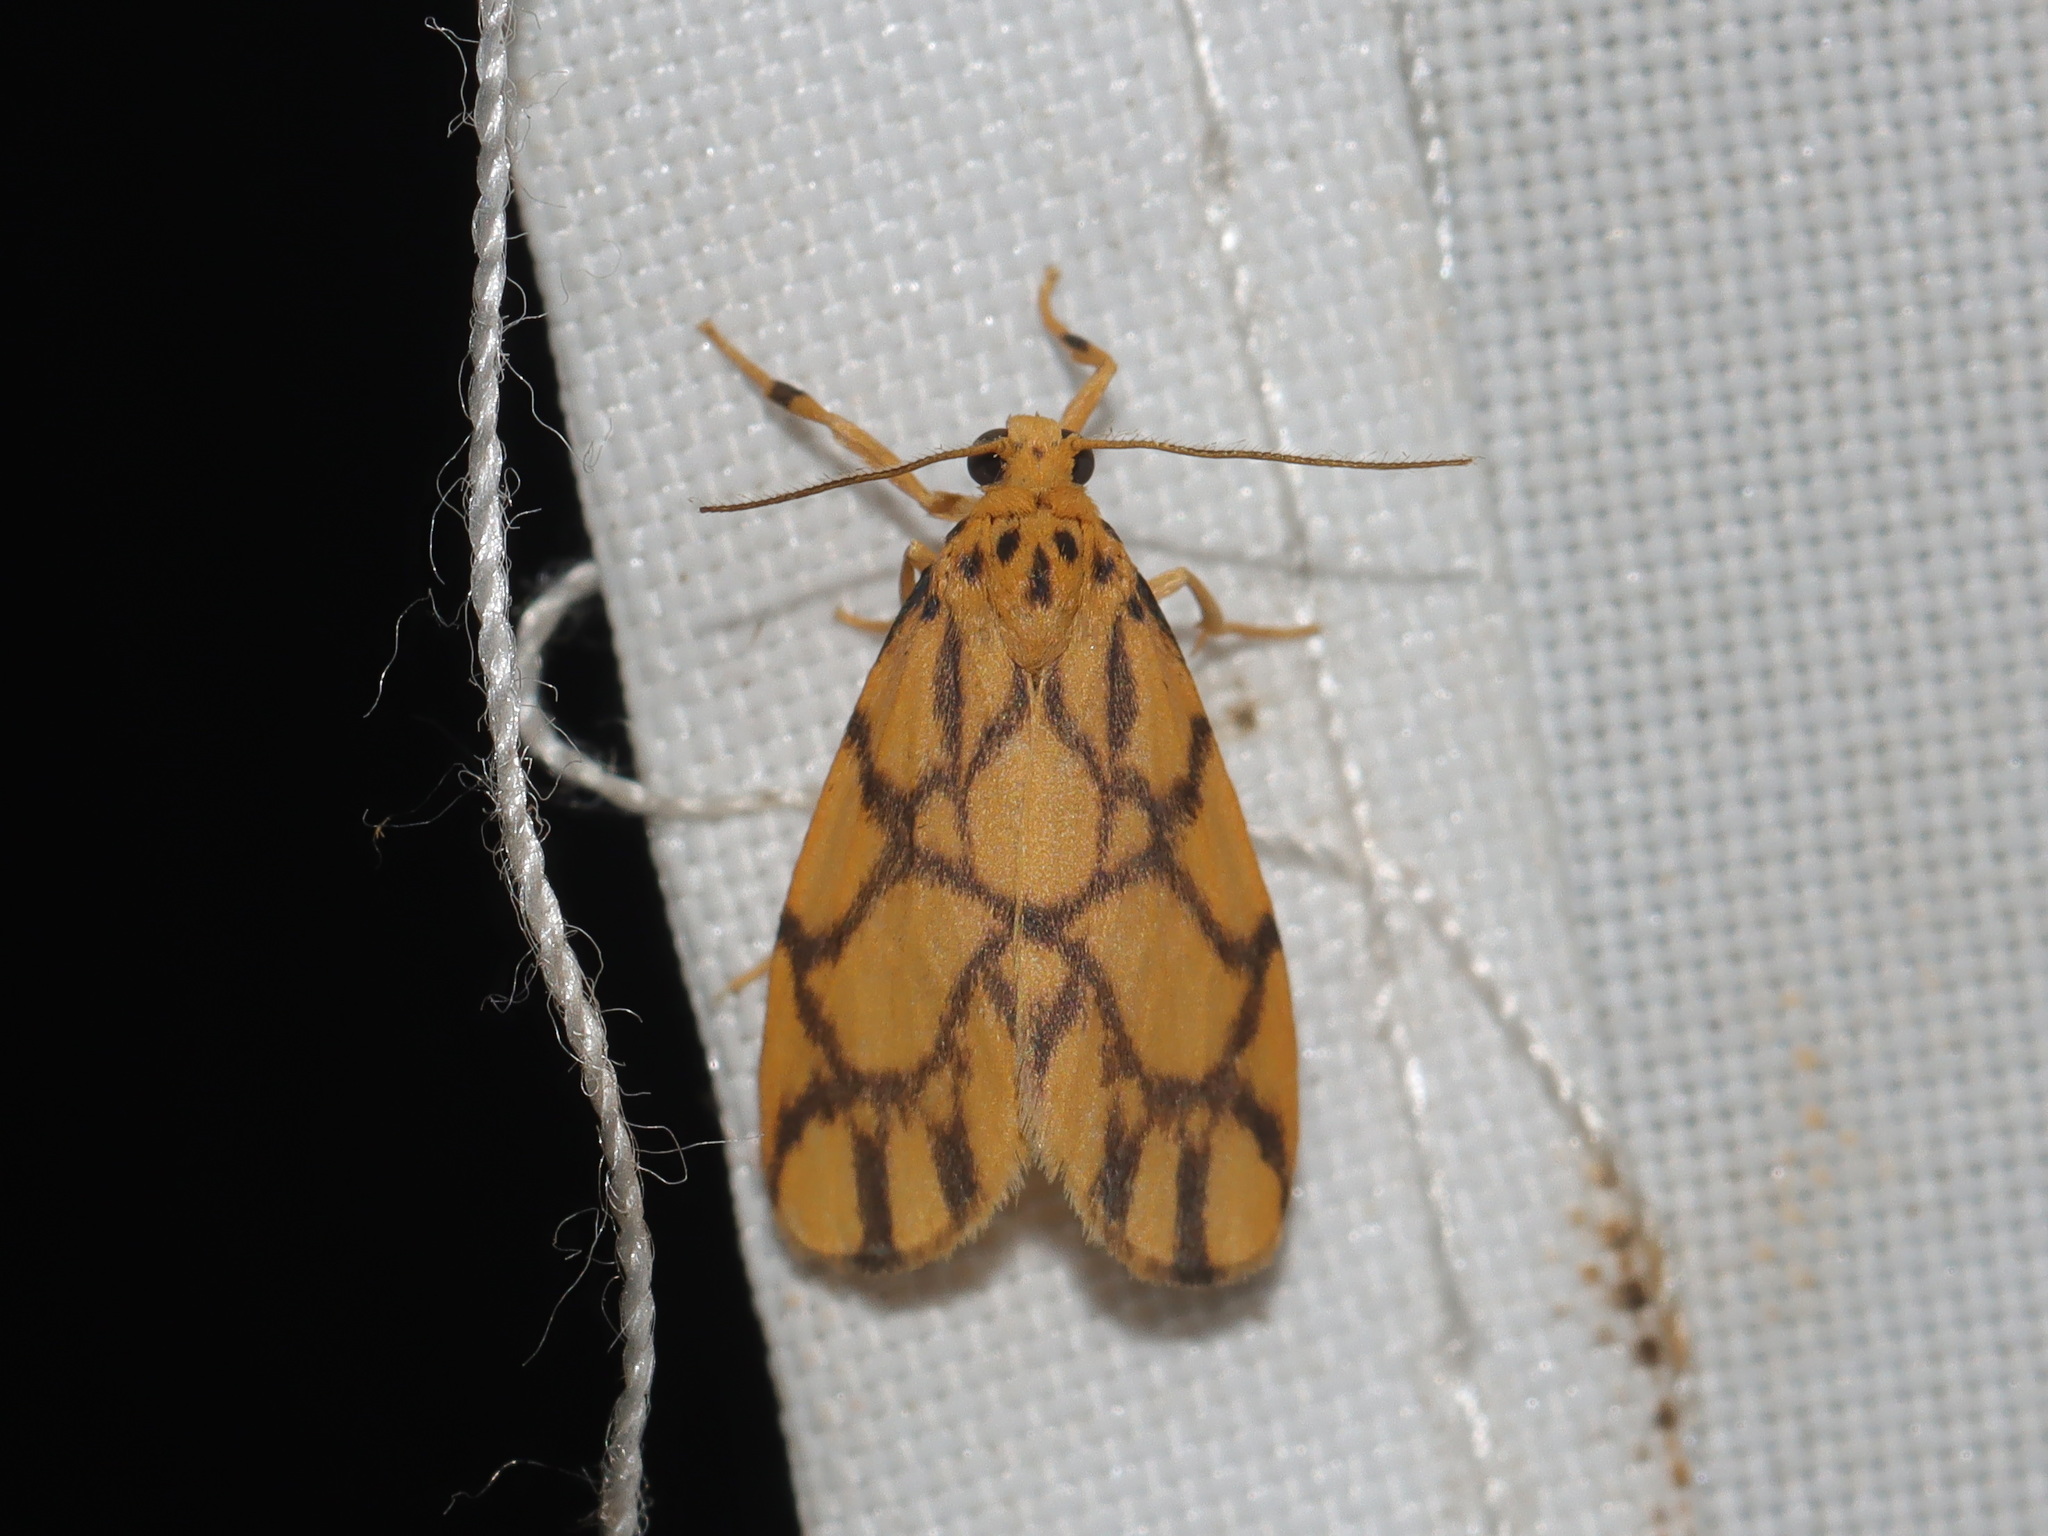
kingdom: Animalia
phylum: Arthropoda
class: Insecta
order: Lepidoptera
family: Erebidae
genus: Asura
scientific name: Asura toxodes
